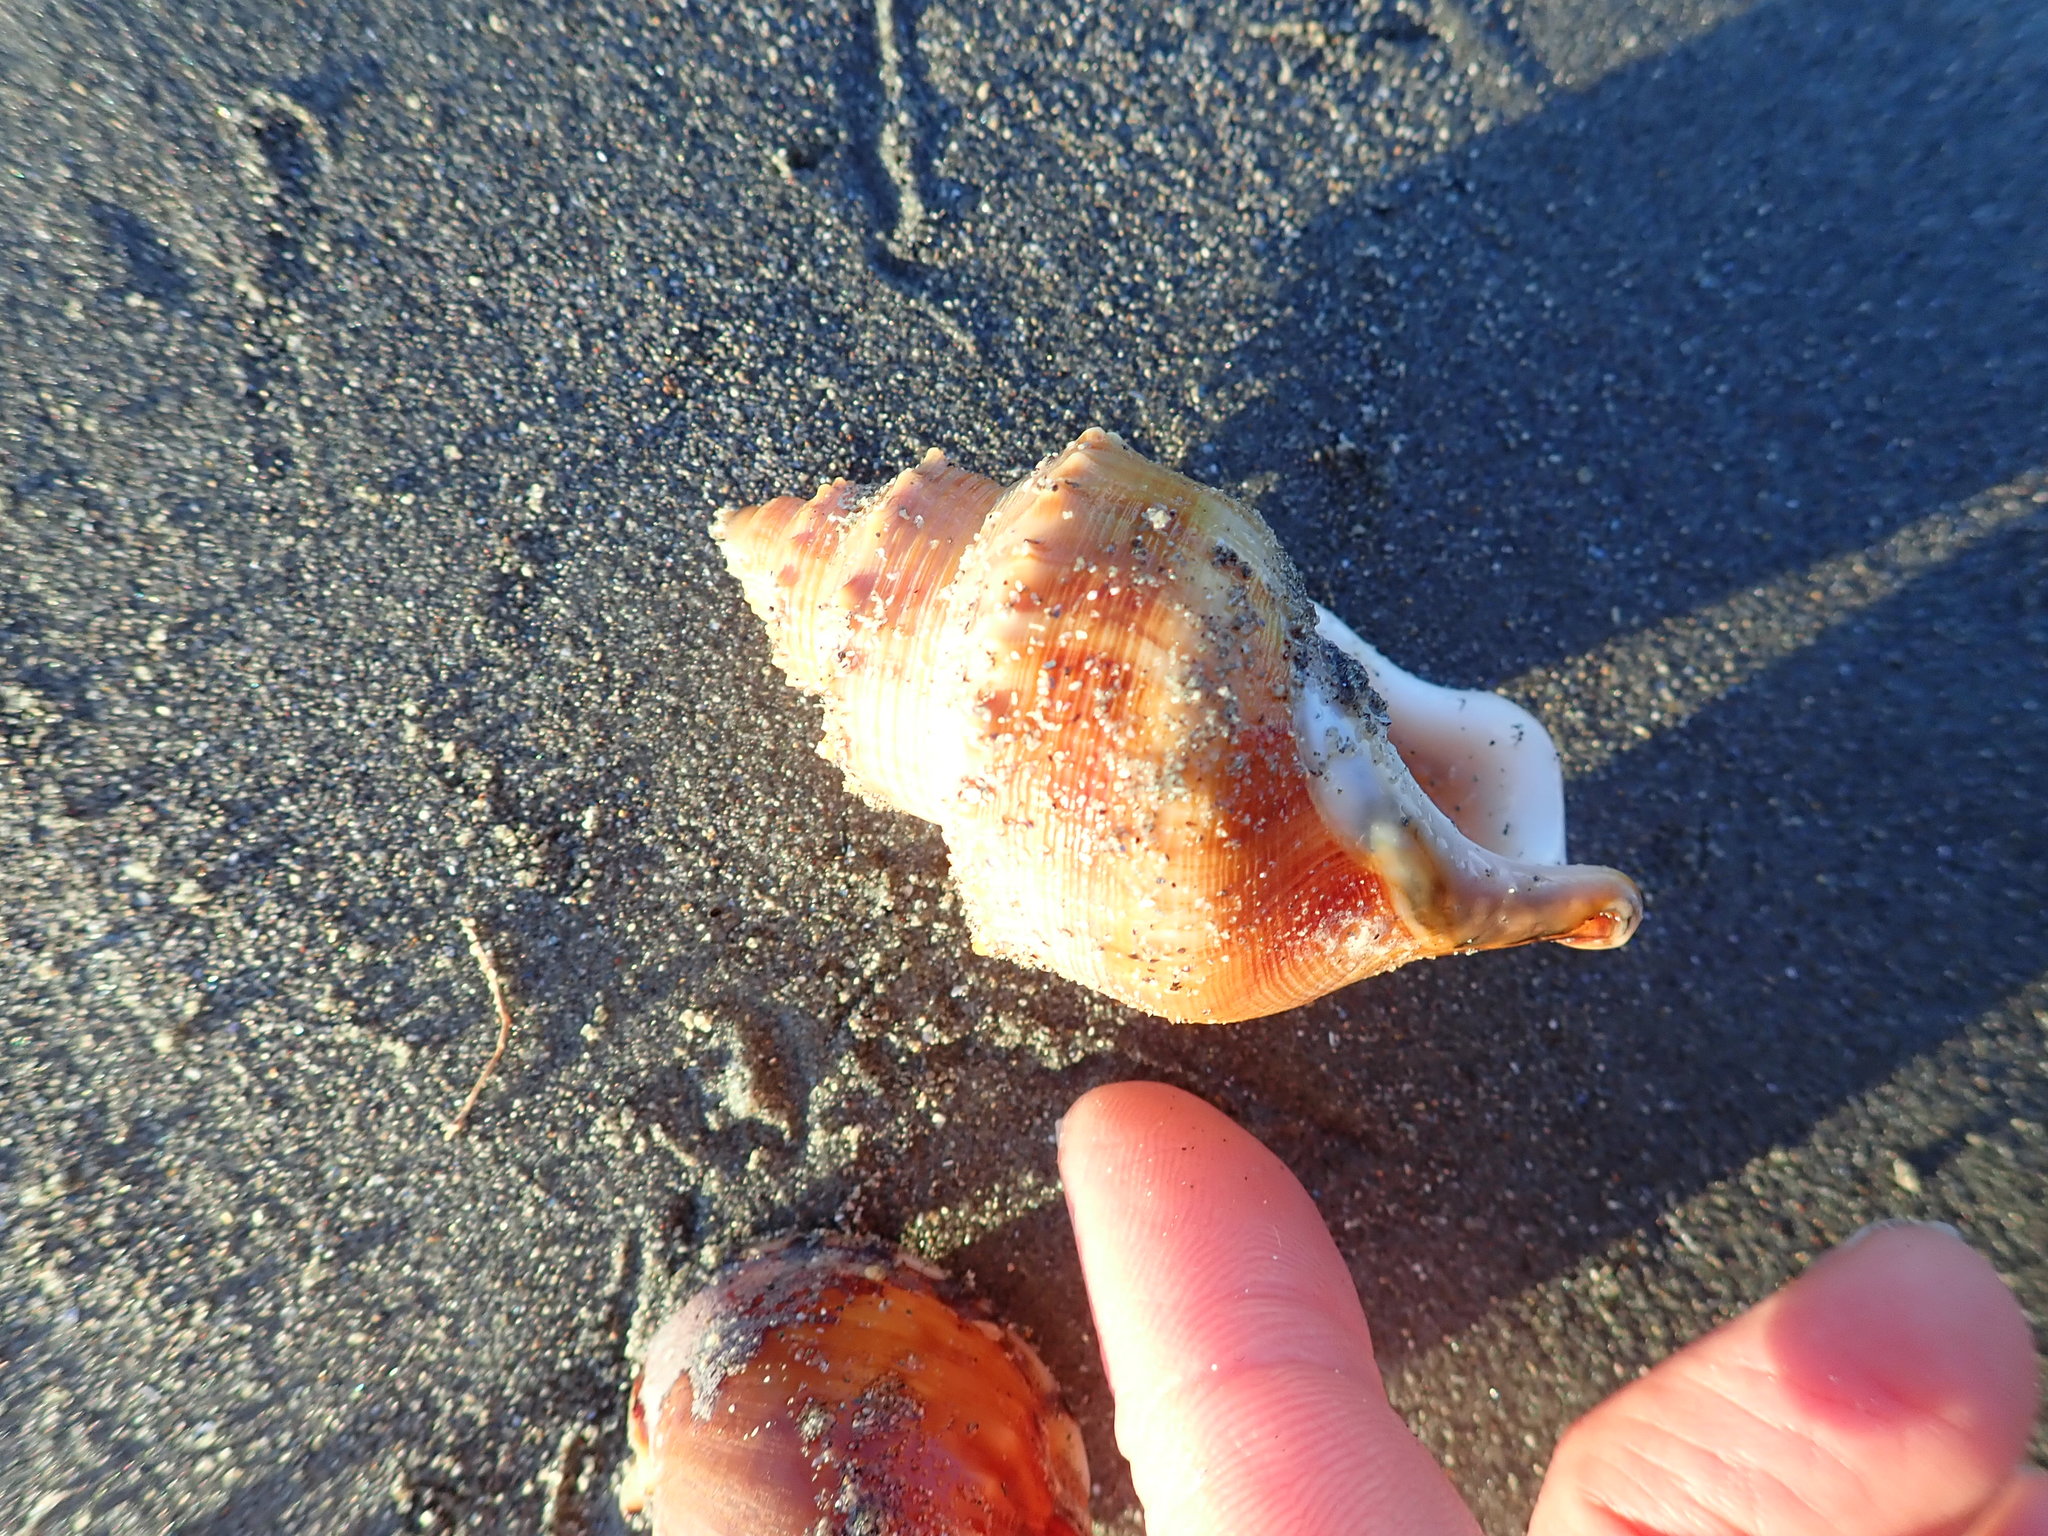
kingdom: Animalia
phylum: Mollusca
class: Gastropoda
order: Littorinimorpha
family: Struthiolariidae
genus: Struthiolaria
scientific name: Struthiolaria papulosa
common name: Large ostrich foot
